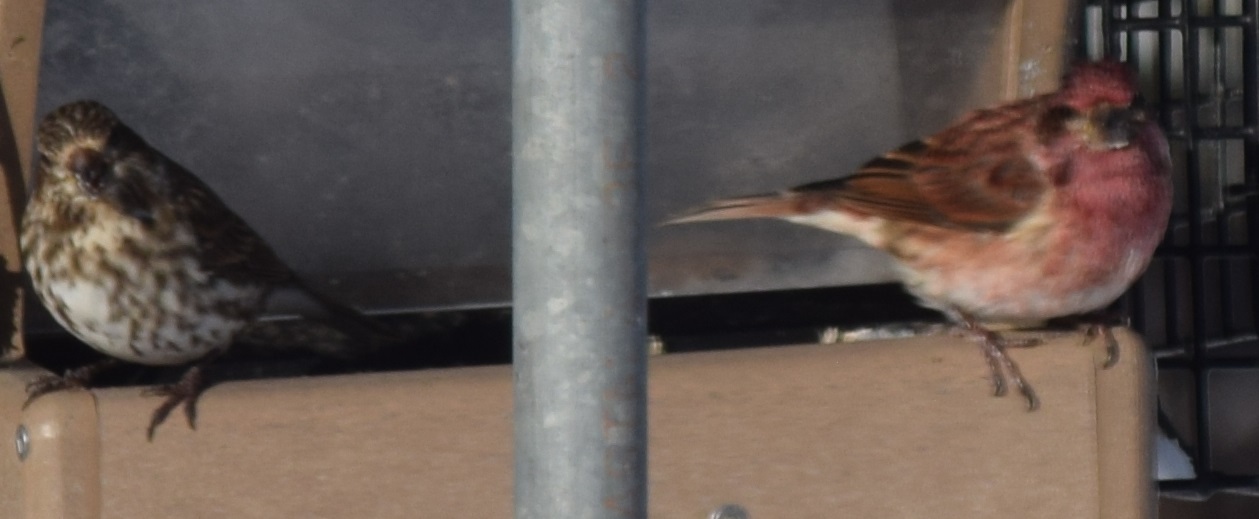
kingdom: Animalia
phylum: Chordata
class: Aves
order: Passeriformes
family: Fringillidae
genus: Haemorhous
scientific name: Haemorhous purpureus
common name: Purple finch
